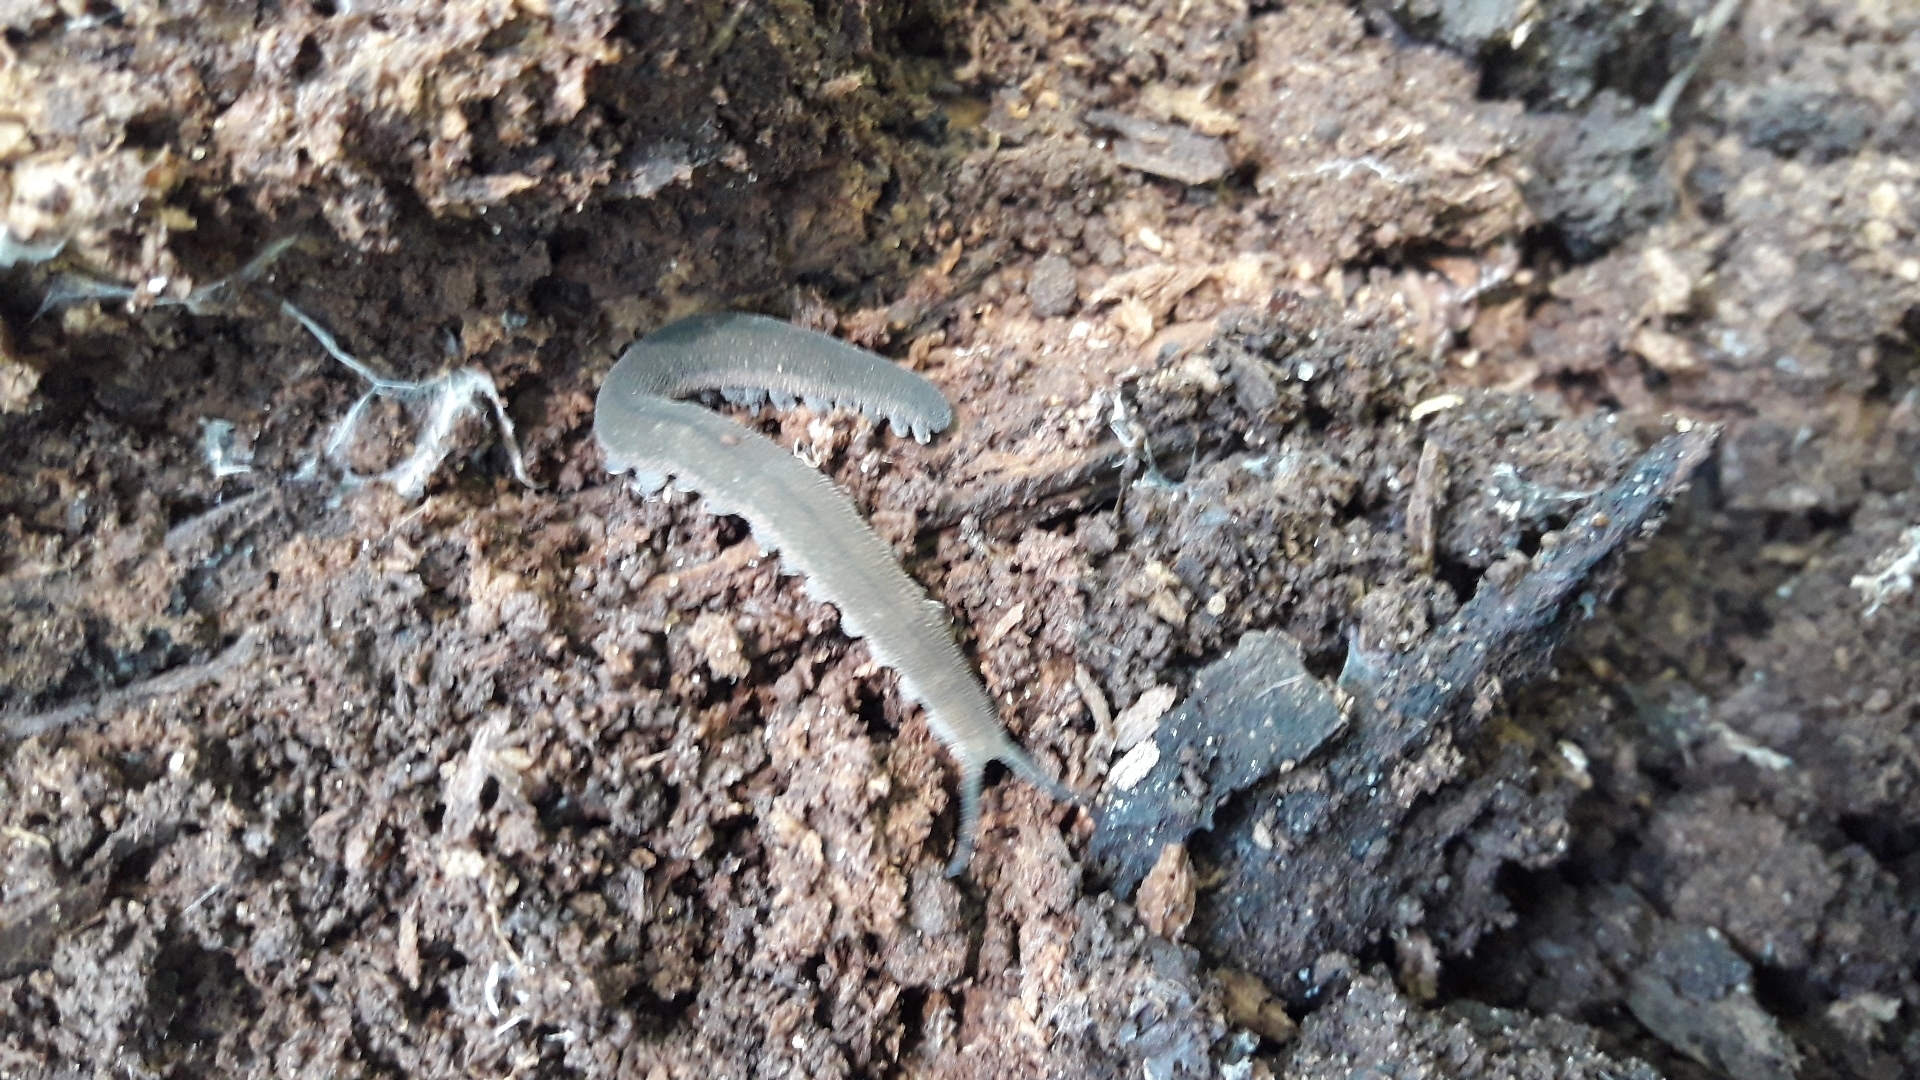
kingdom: Animalia
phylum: Onychophora
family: Peripatopsidae
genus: Peripatopsis
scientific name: Peripatopsis
